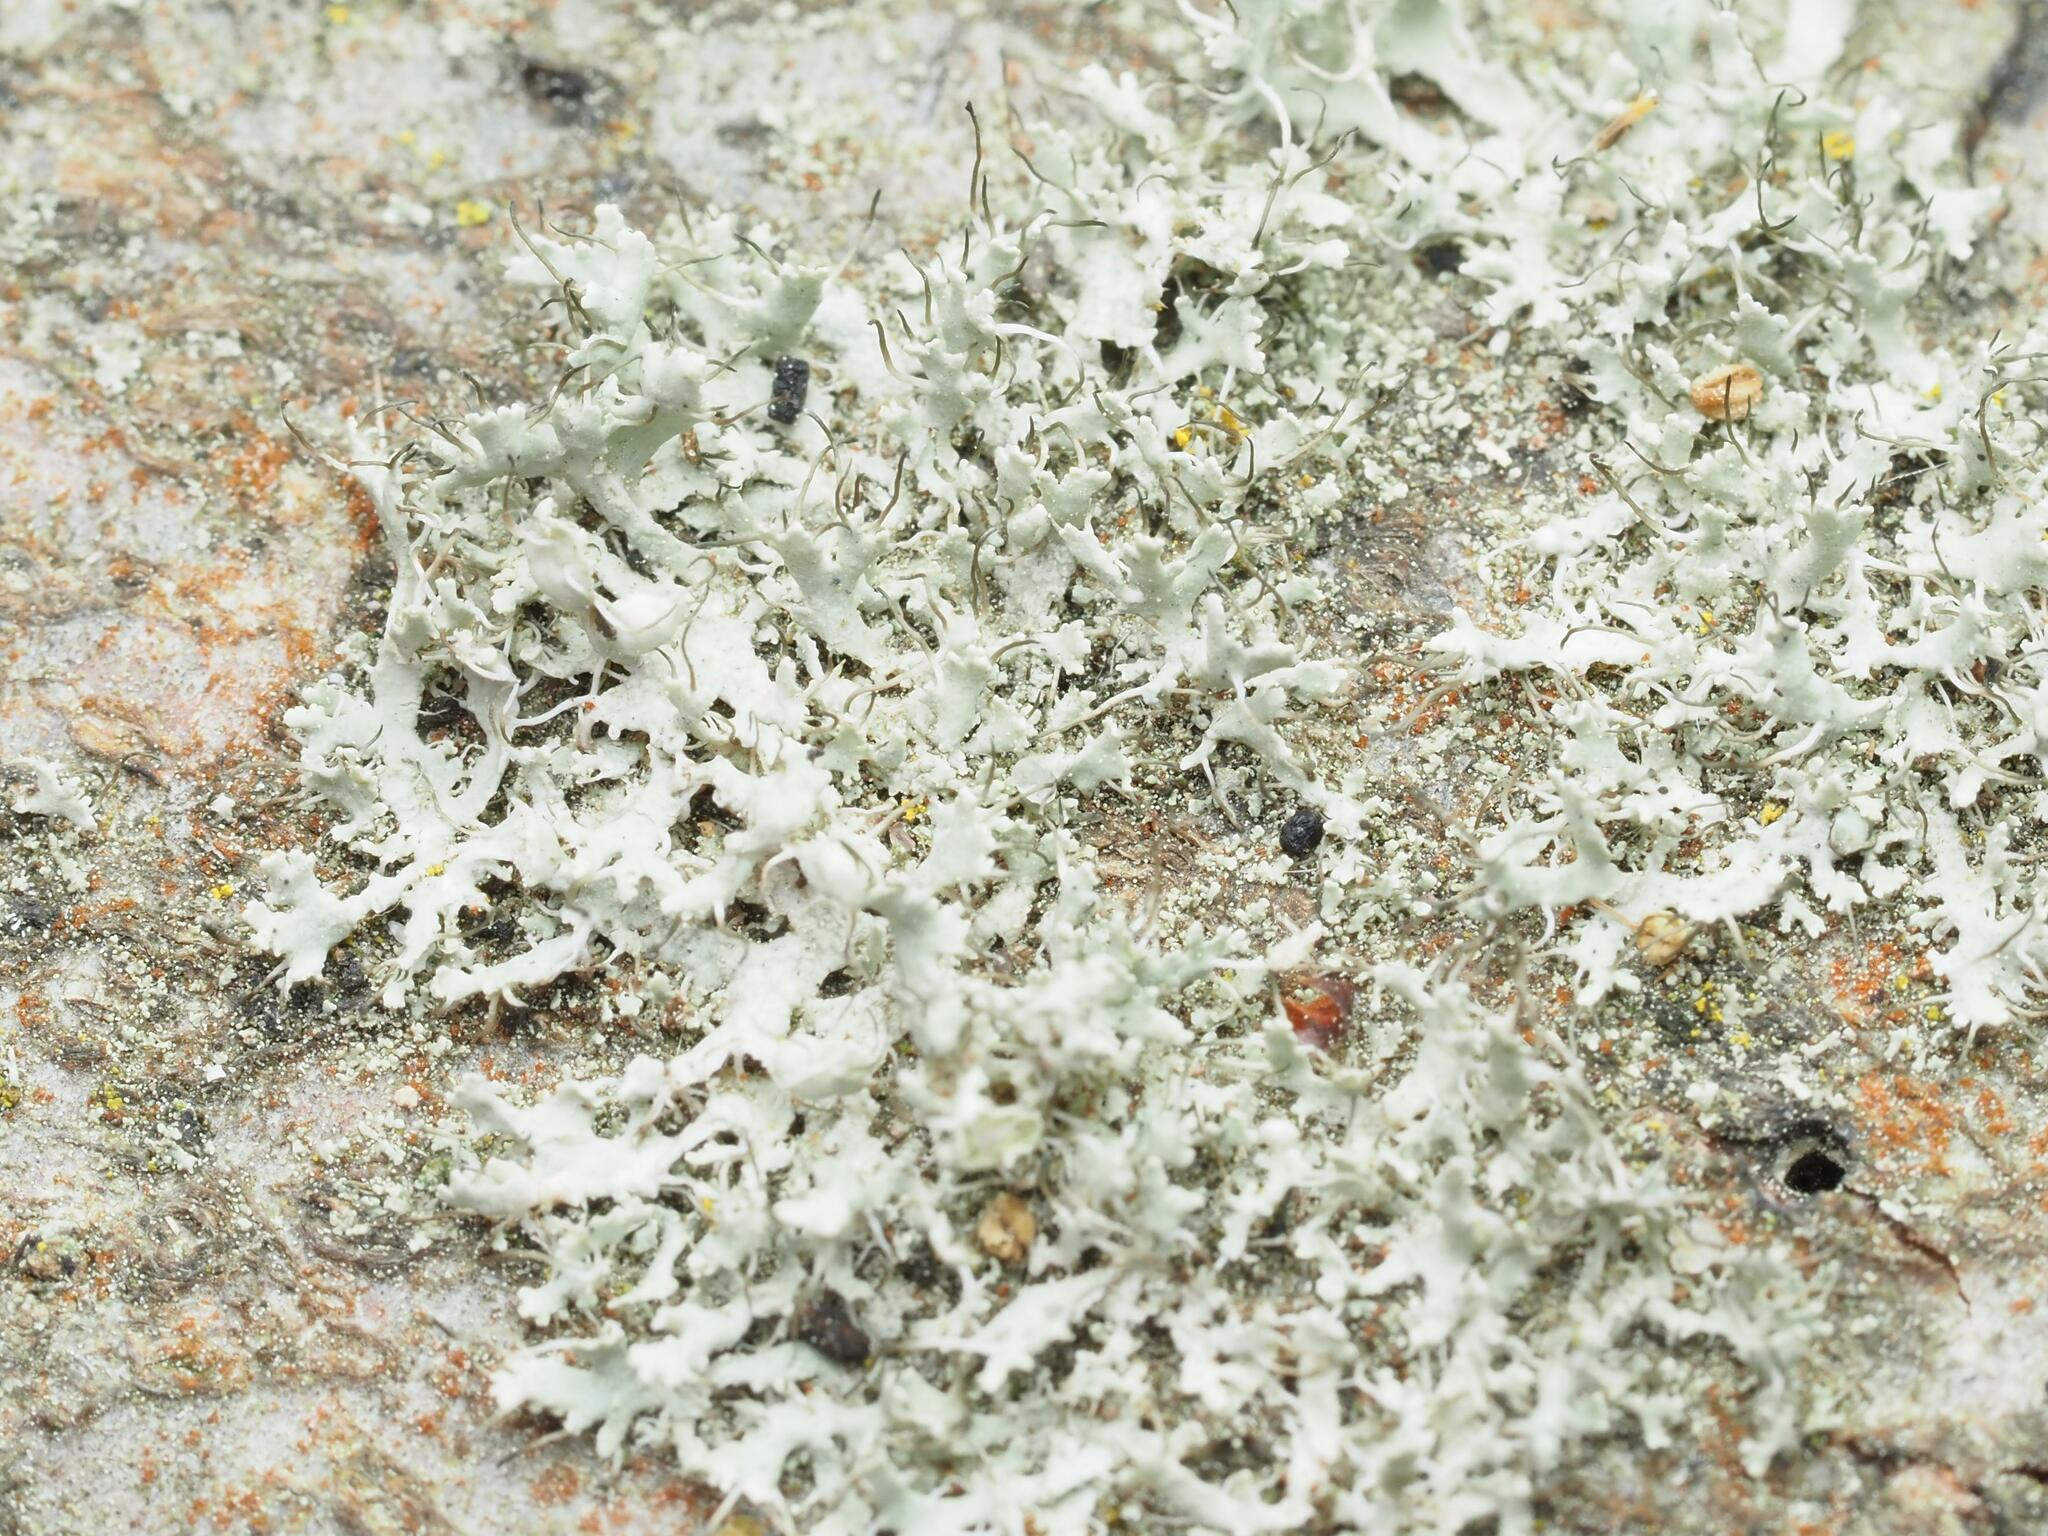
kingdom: Fungi
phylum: Ascomycota
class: Lecanoromycetes
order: Caliciales
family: Physciaceae
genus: Physcia
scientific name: Physcia adscendens
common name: Hooded rosette lichen
